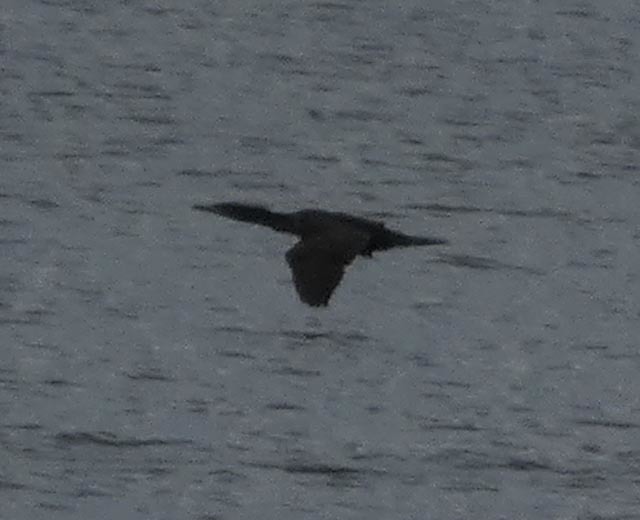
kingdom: Animalia
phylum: Chordata
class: Aves
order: Suliformes
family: Phalacrocoracidae
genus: Phalacrocorax
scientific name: Phalacrocorax auritus
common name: Double-crested cormorant
